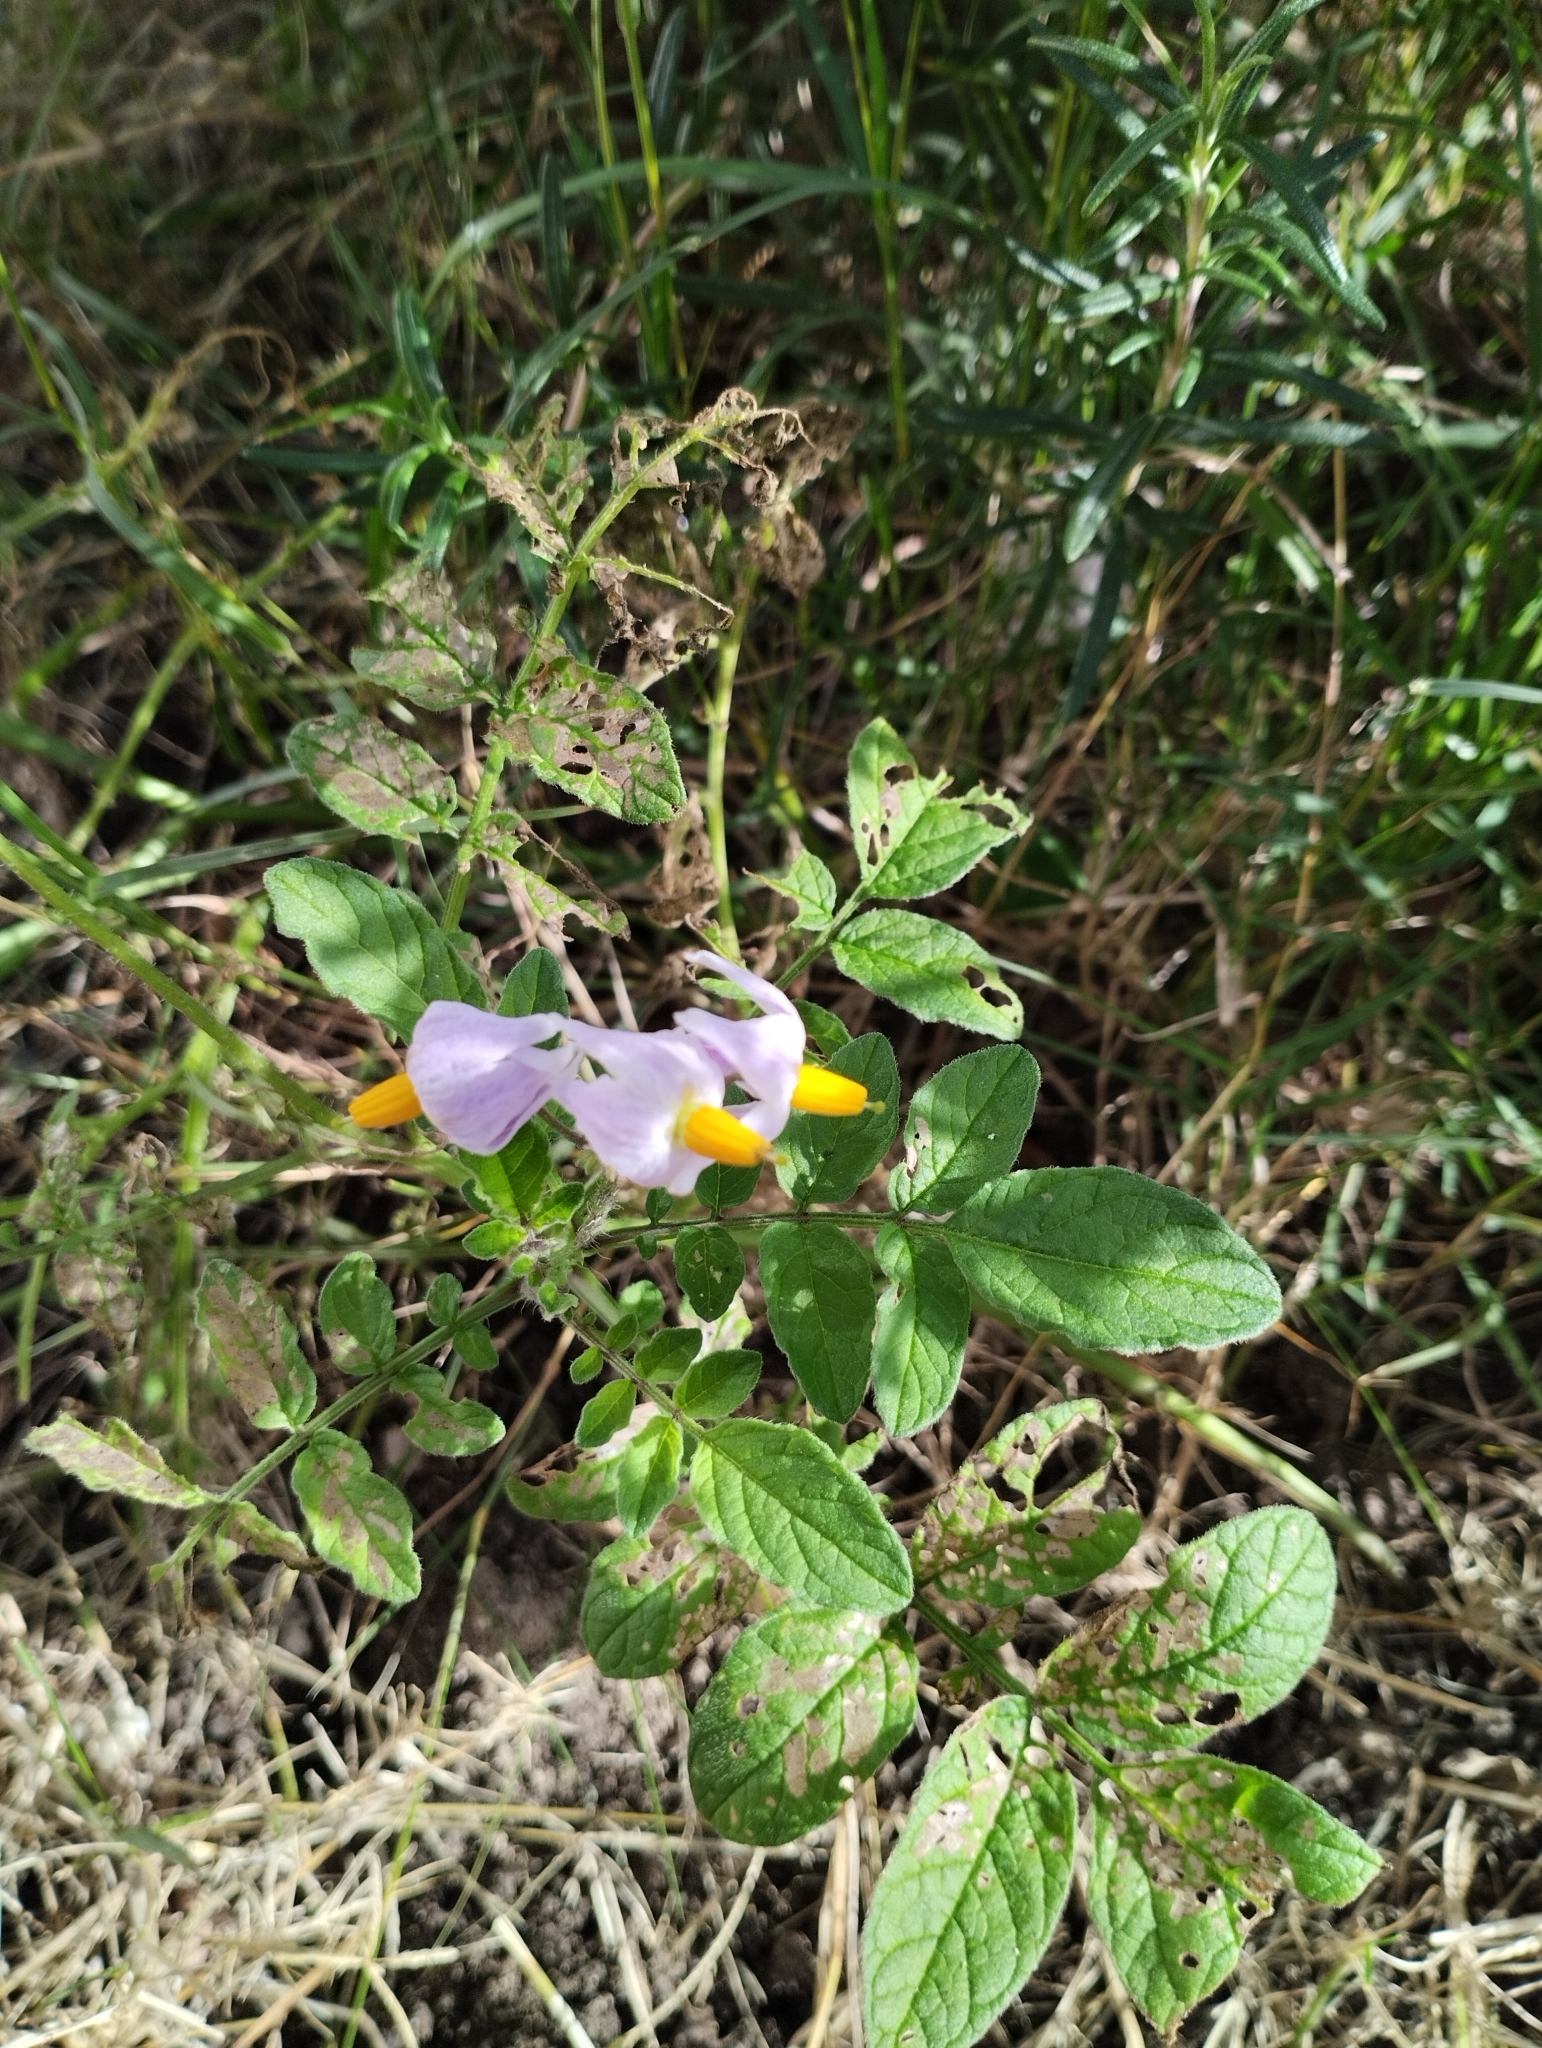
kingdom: Plantae
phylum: Tracheophyta
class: Magnoliopsida
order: Solanales
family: Solanaceae
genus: Solanum
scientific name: Solanum commersonii
